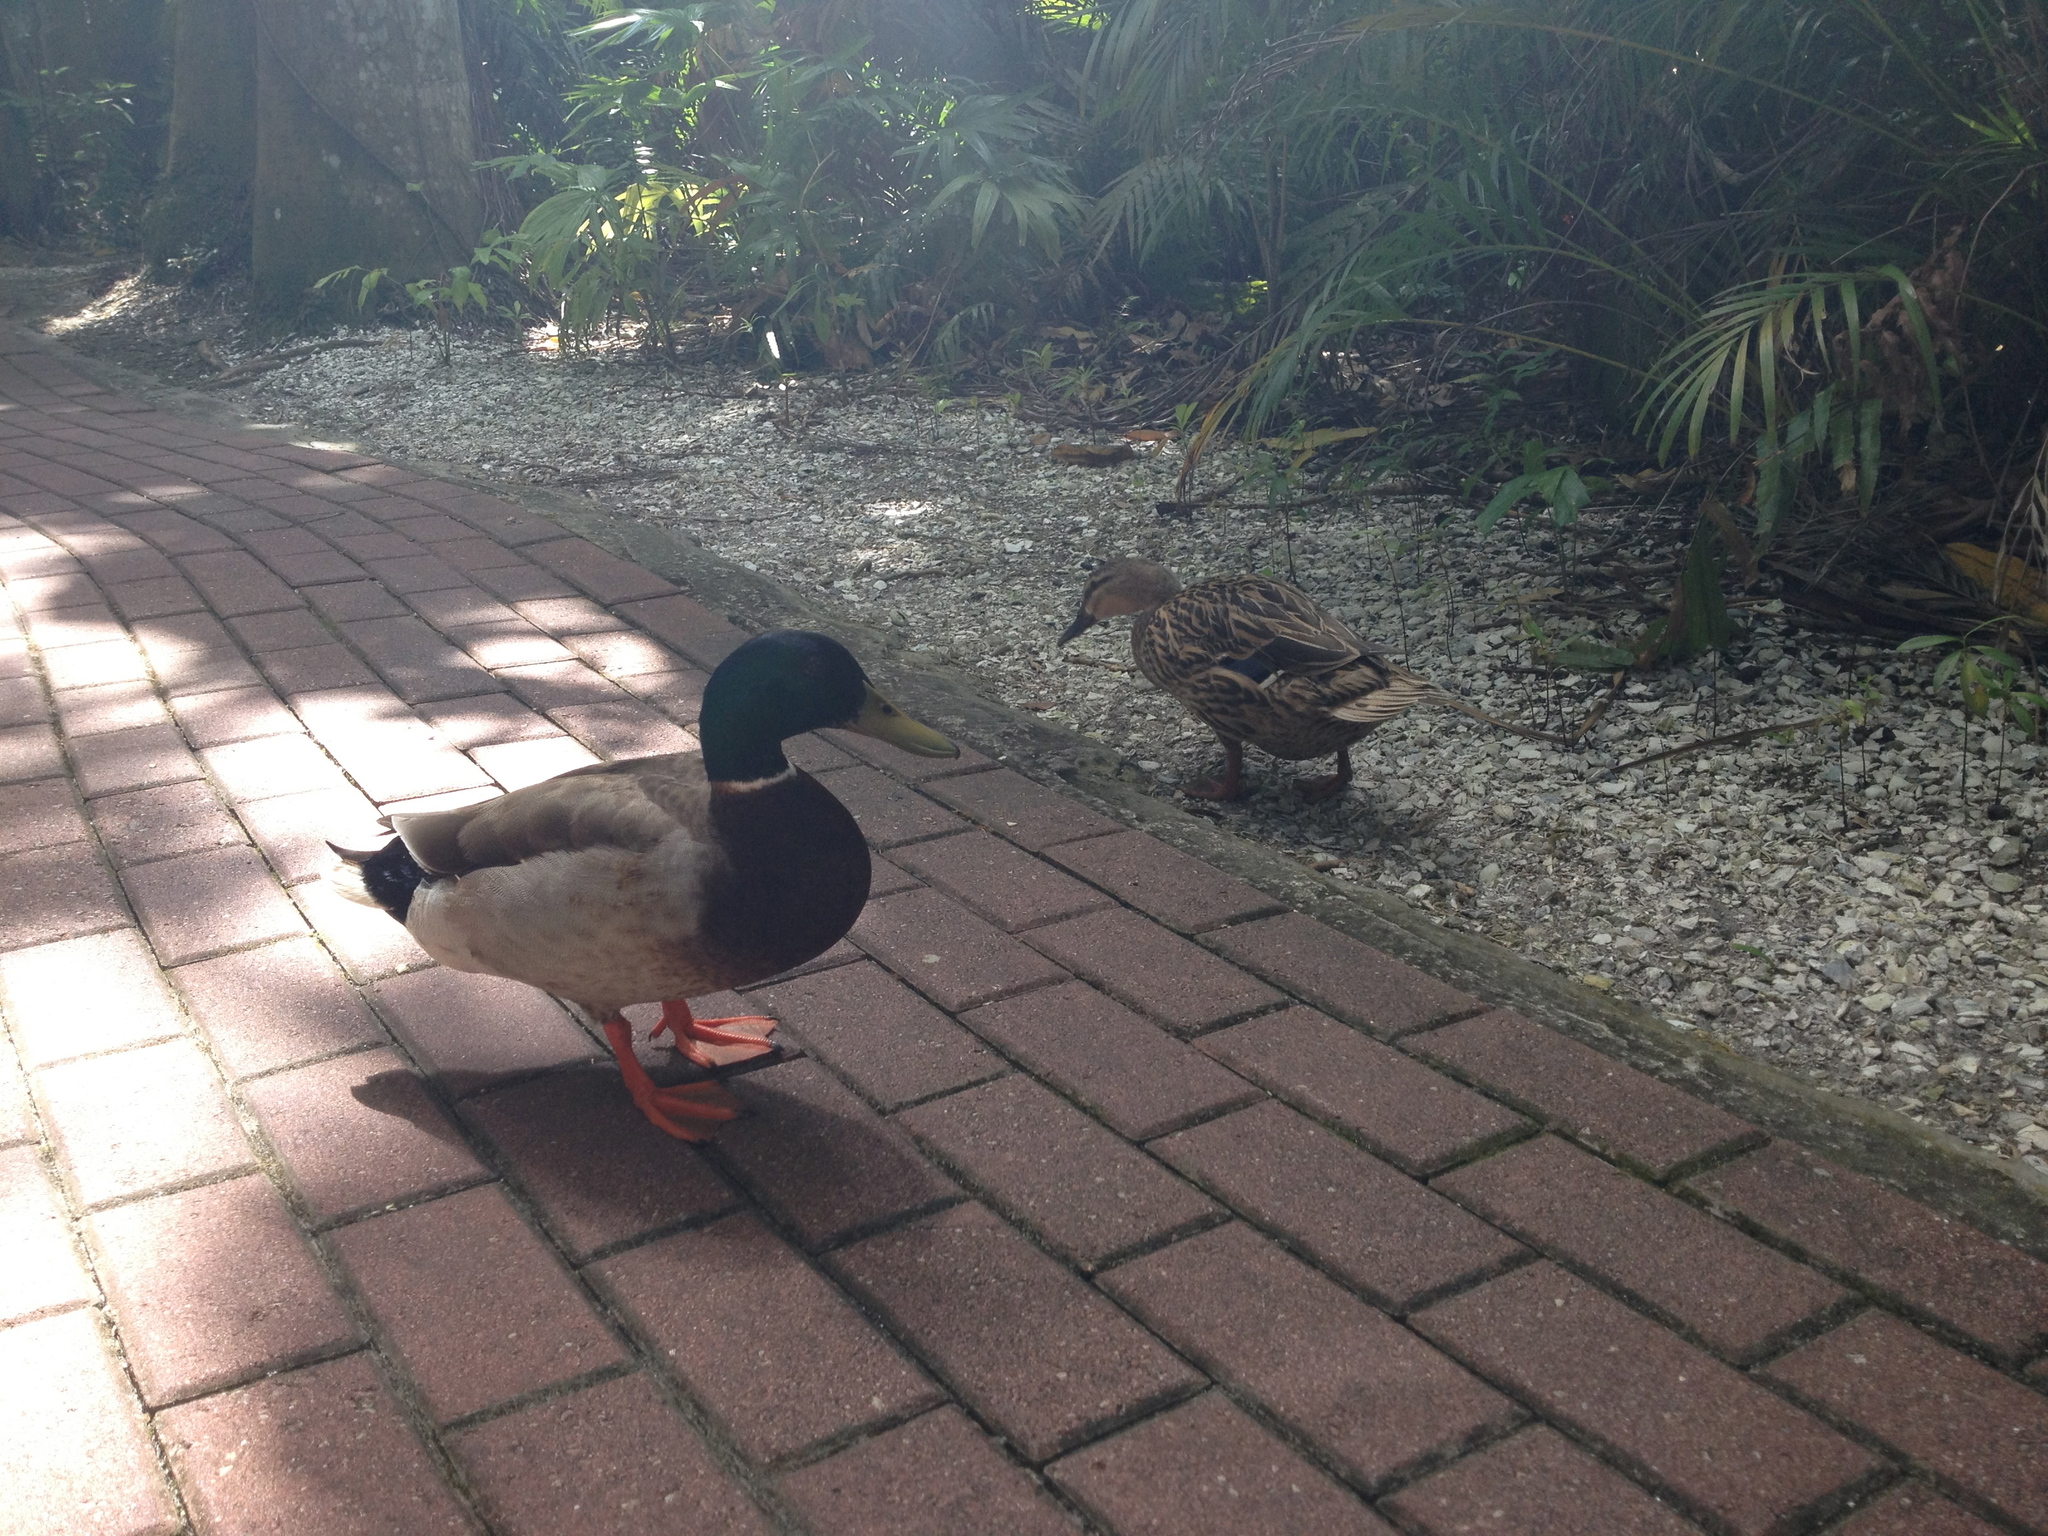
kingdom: Animalia
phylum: Chordata
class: Aves
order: Anseriformes
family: Anatidae
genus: Anas
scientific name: Anas platyrhynchos
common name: Mallard
